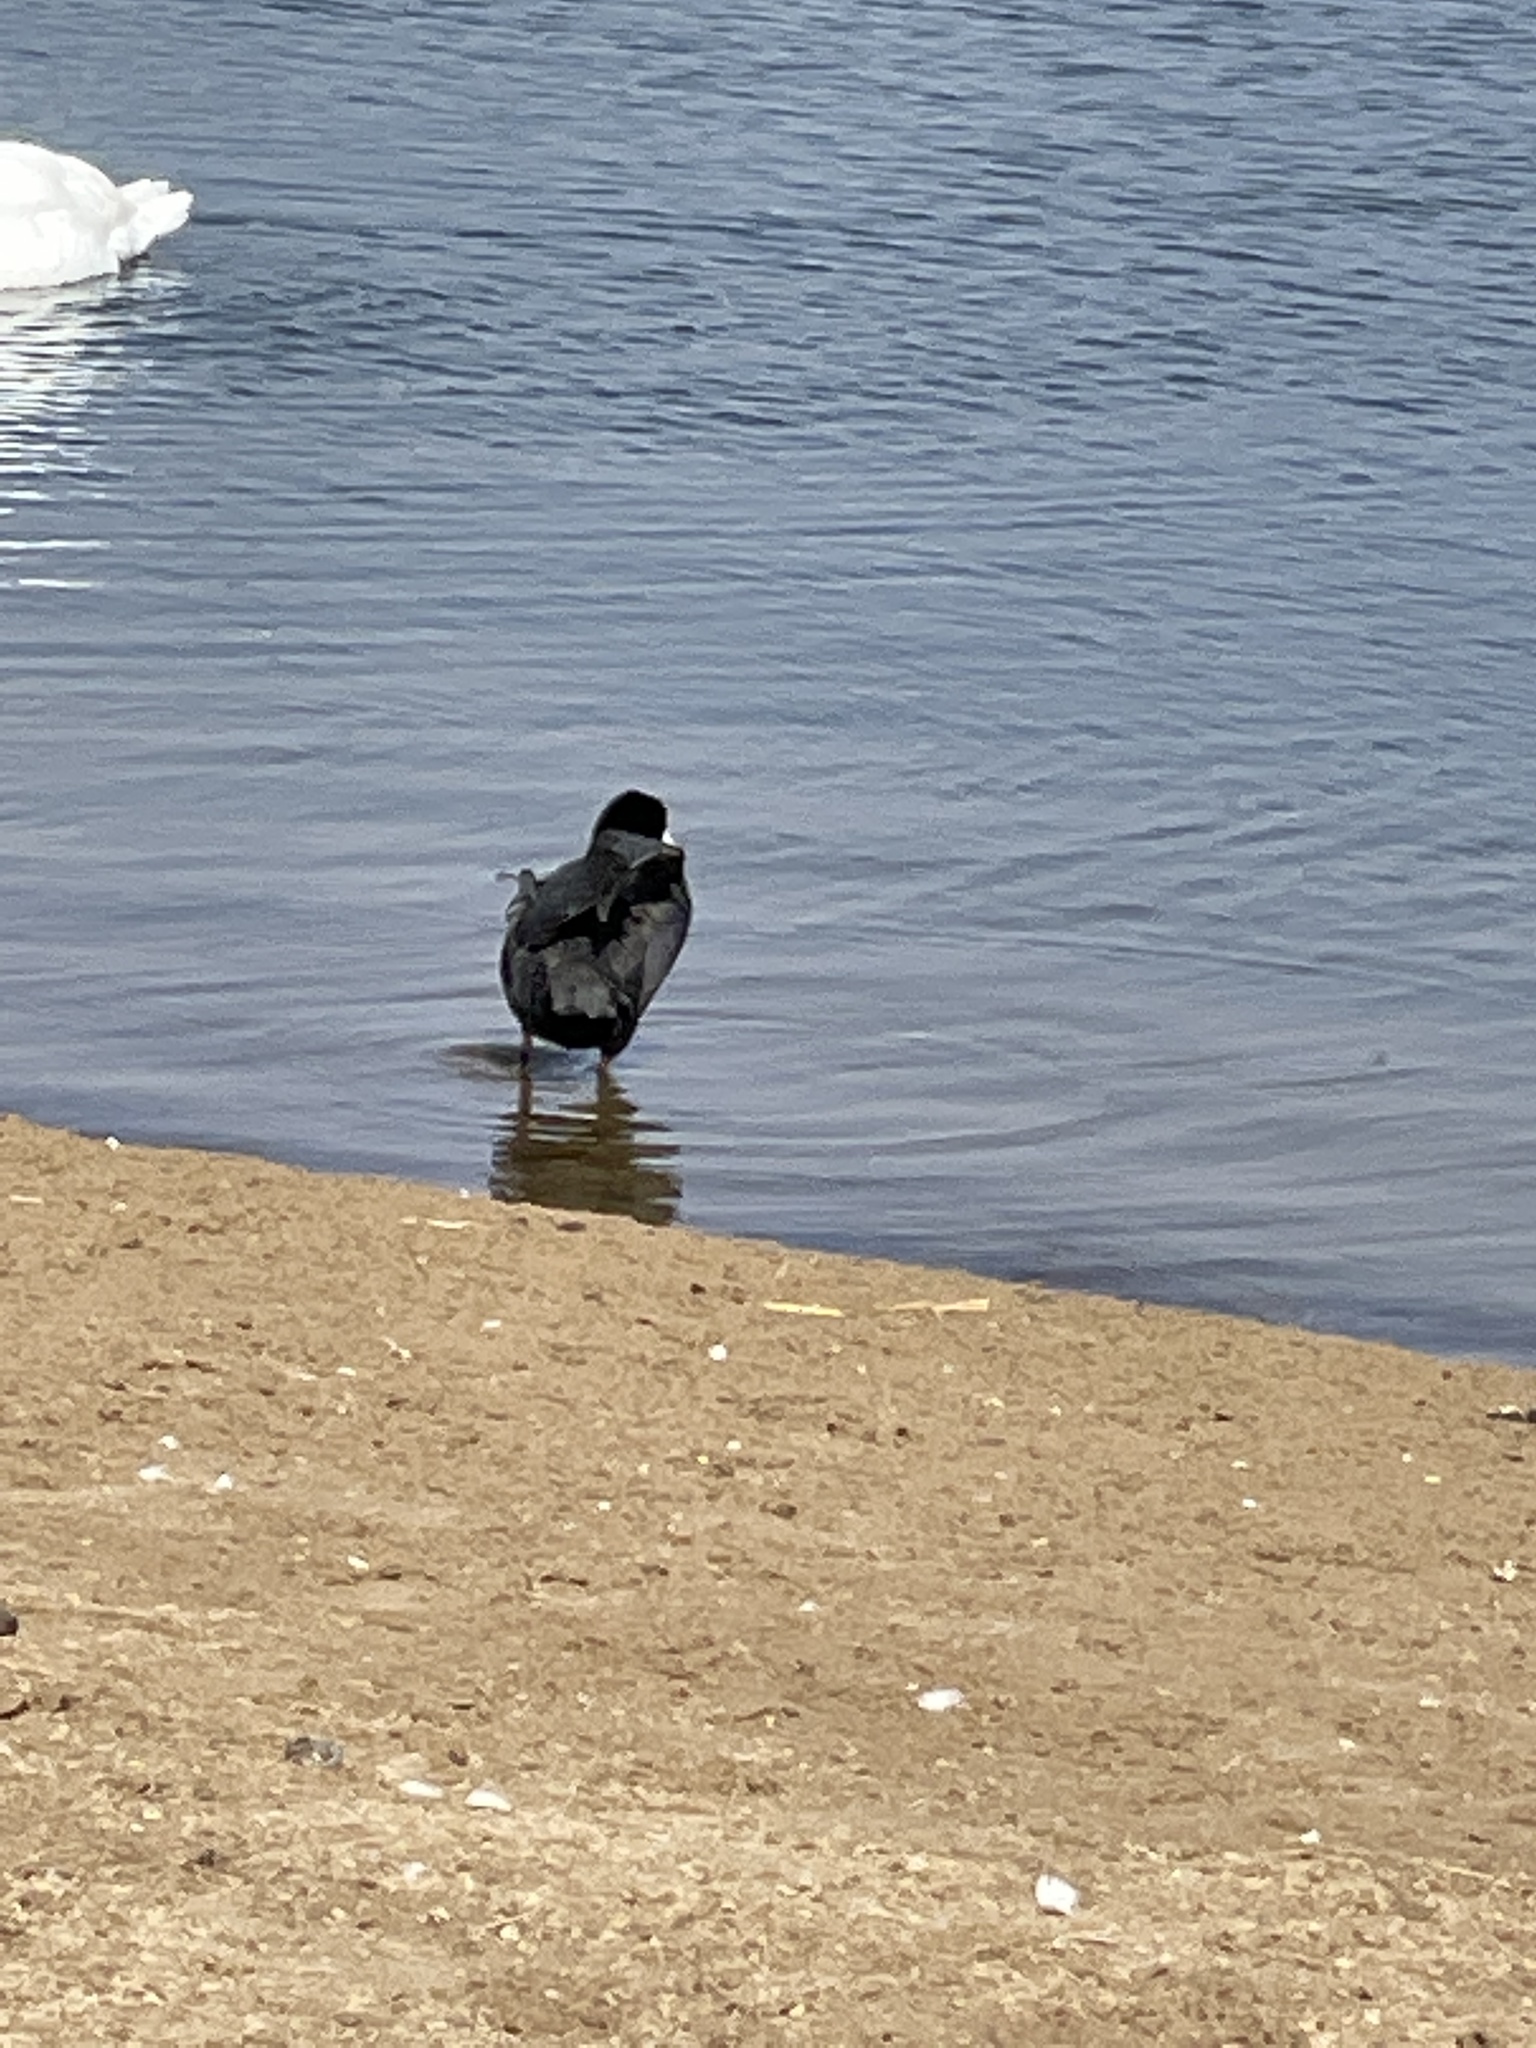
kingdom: Animalia
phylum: Chordata
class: Aves
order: Gruiformes
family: Rallidae
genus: Fulica
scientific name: Fulica atra
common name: Eurasian coot
